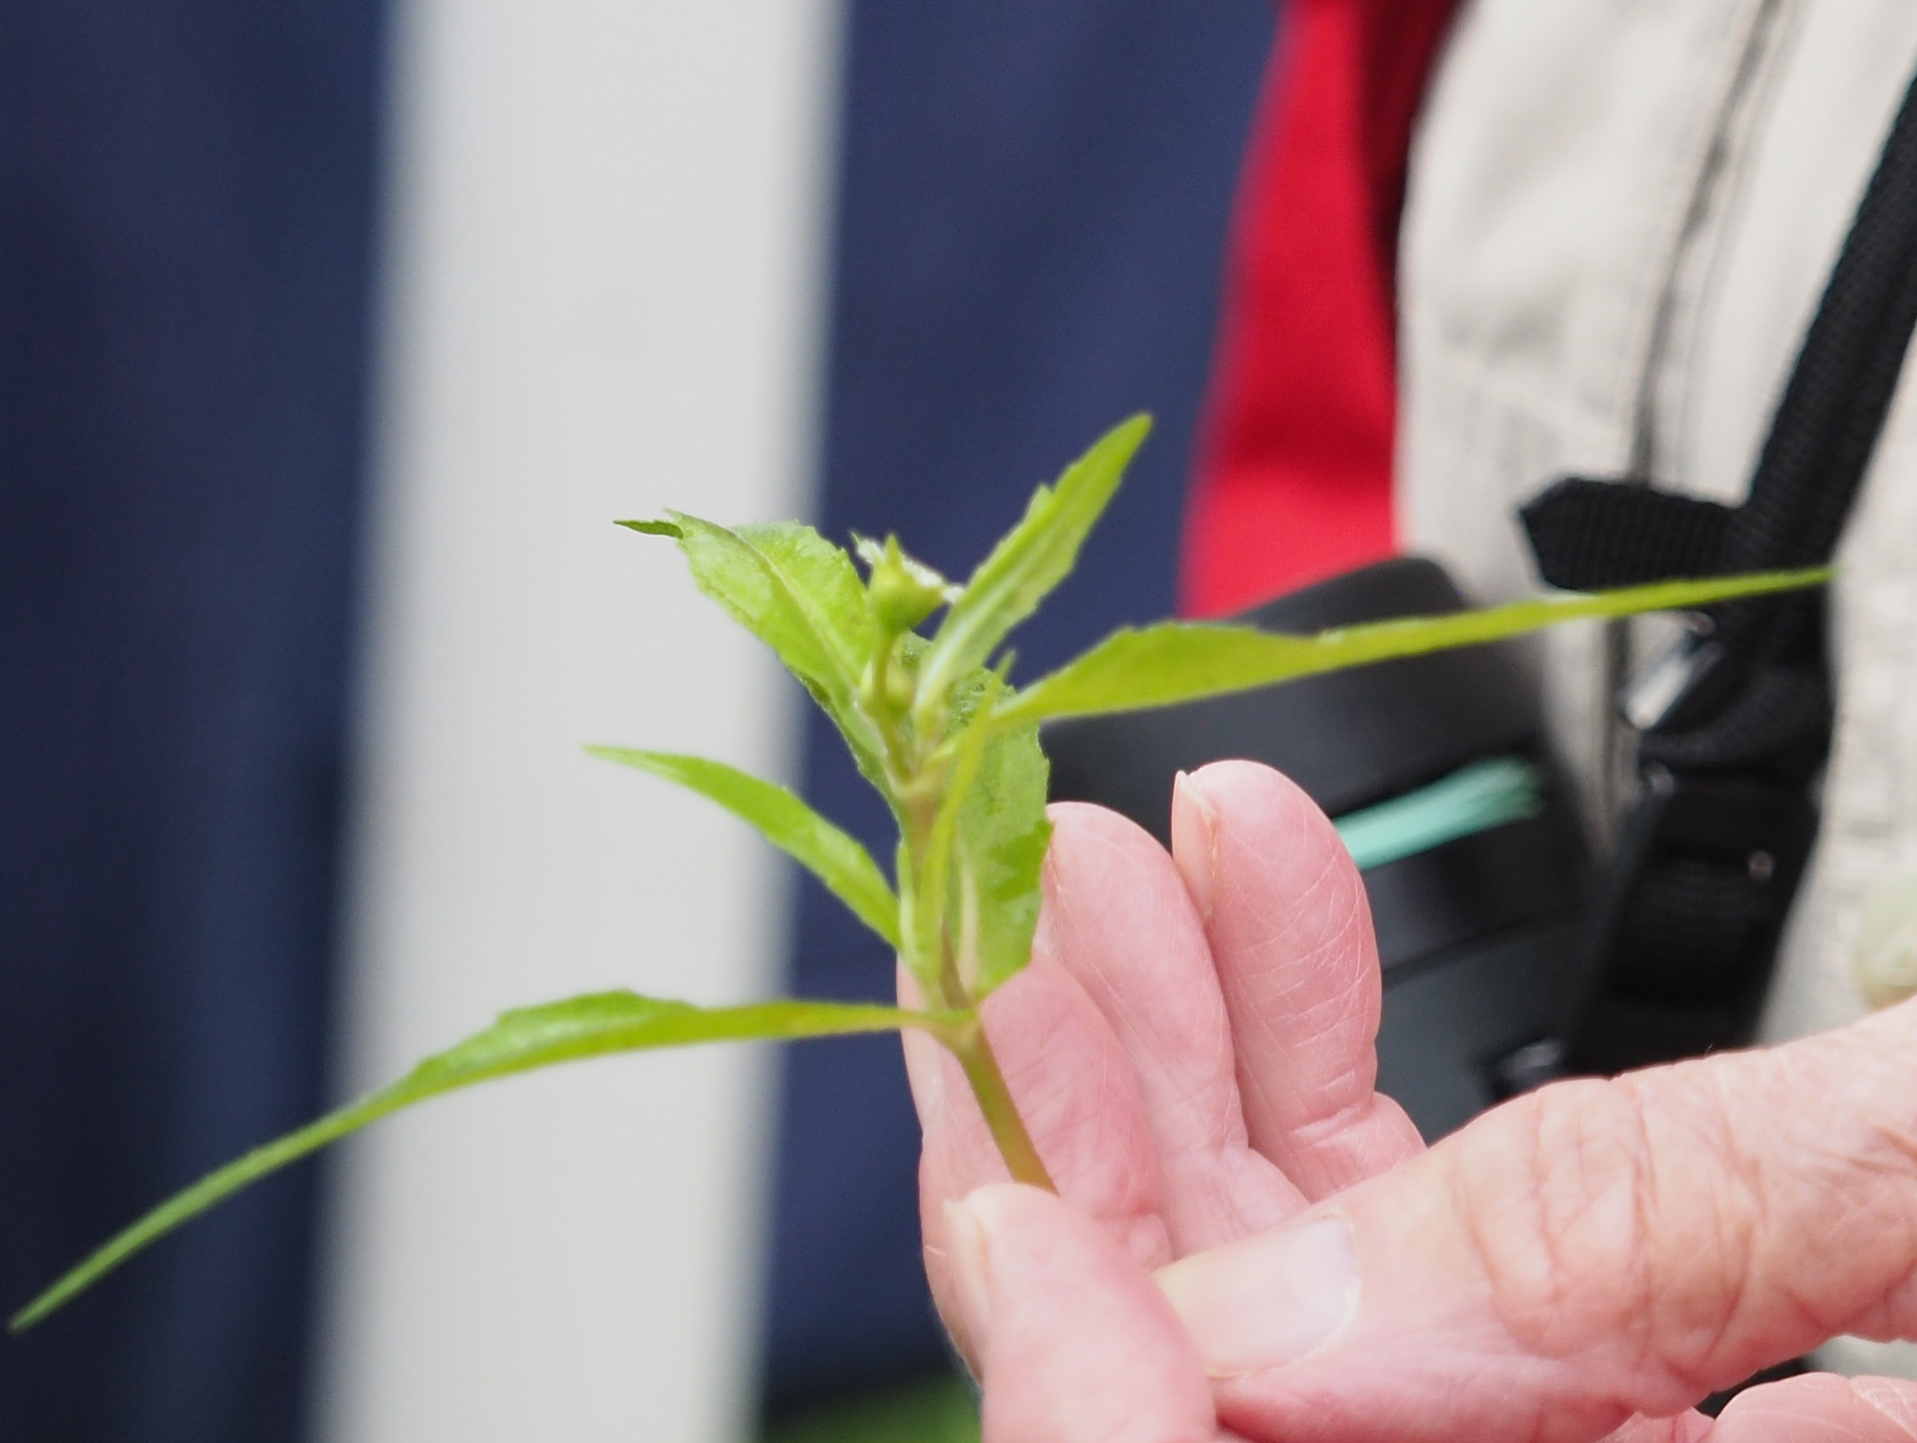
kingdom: Plantae
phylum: Tracheophyta
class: Magnoliopsida
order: Asterales
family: Asteraceae
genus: Eclipta
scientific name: Eclipta prostrata
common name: False daisy
